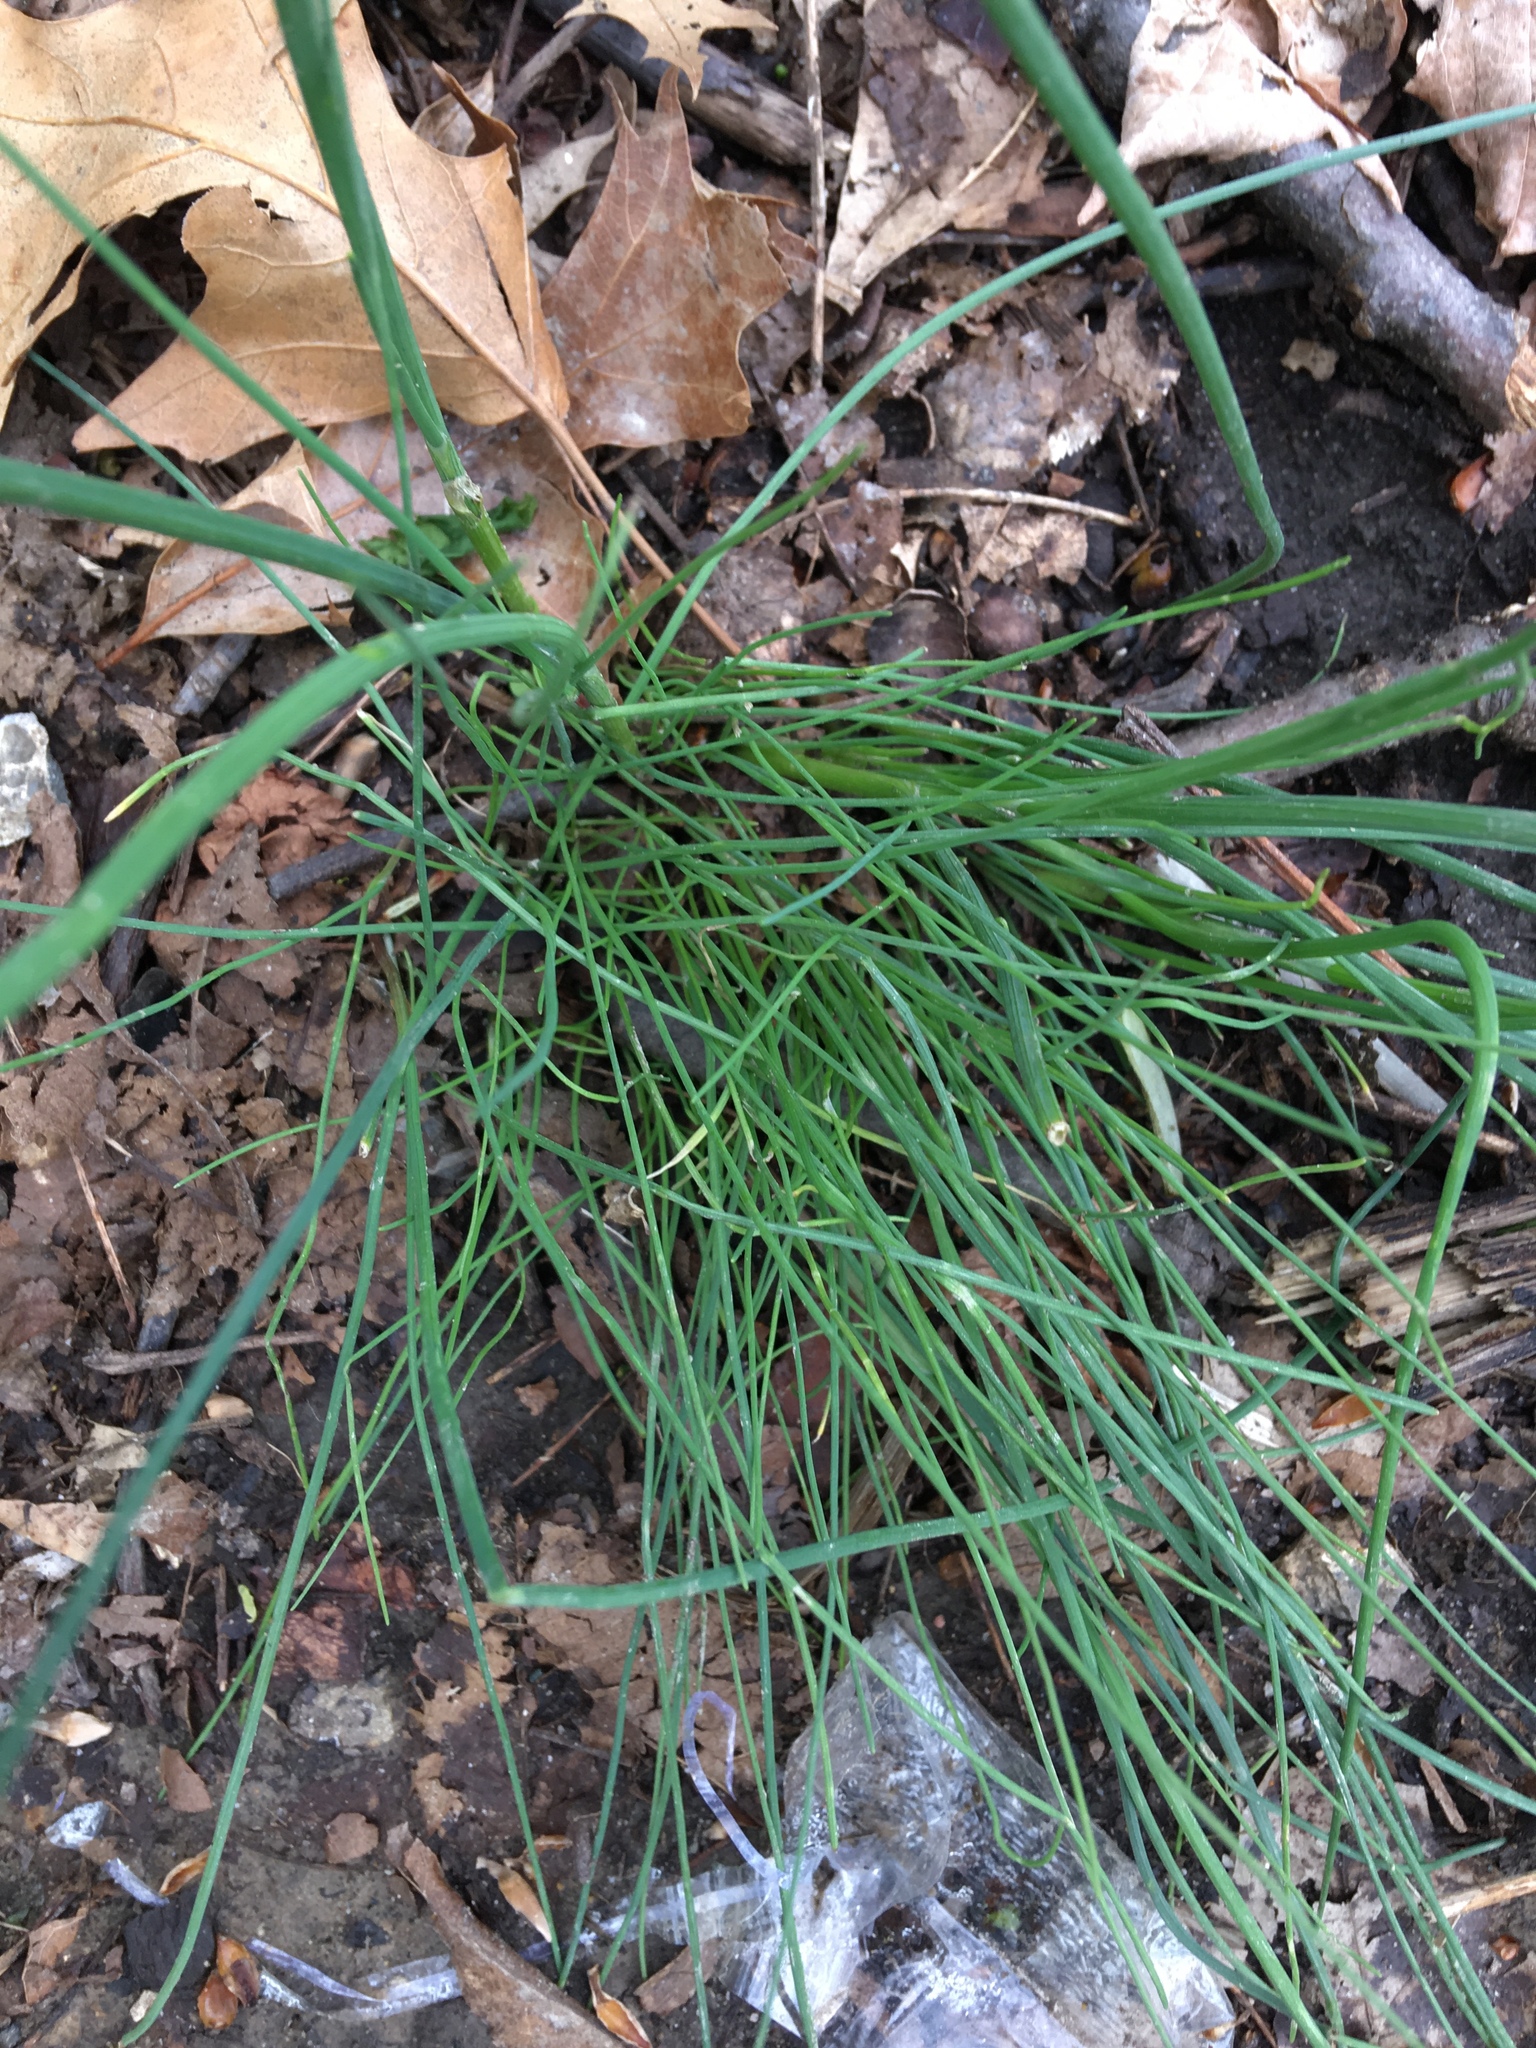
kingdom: Plantae
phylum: Tracheophyta
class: Liliopsida
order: Asparagales
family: Amaryllidaceae
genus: Allium
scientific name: Allium vineale
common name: Crow garlic
